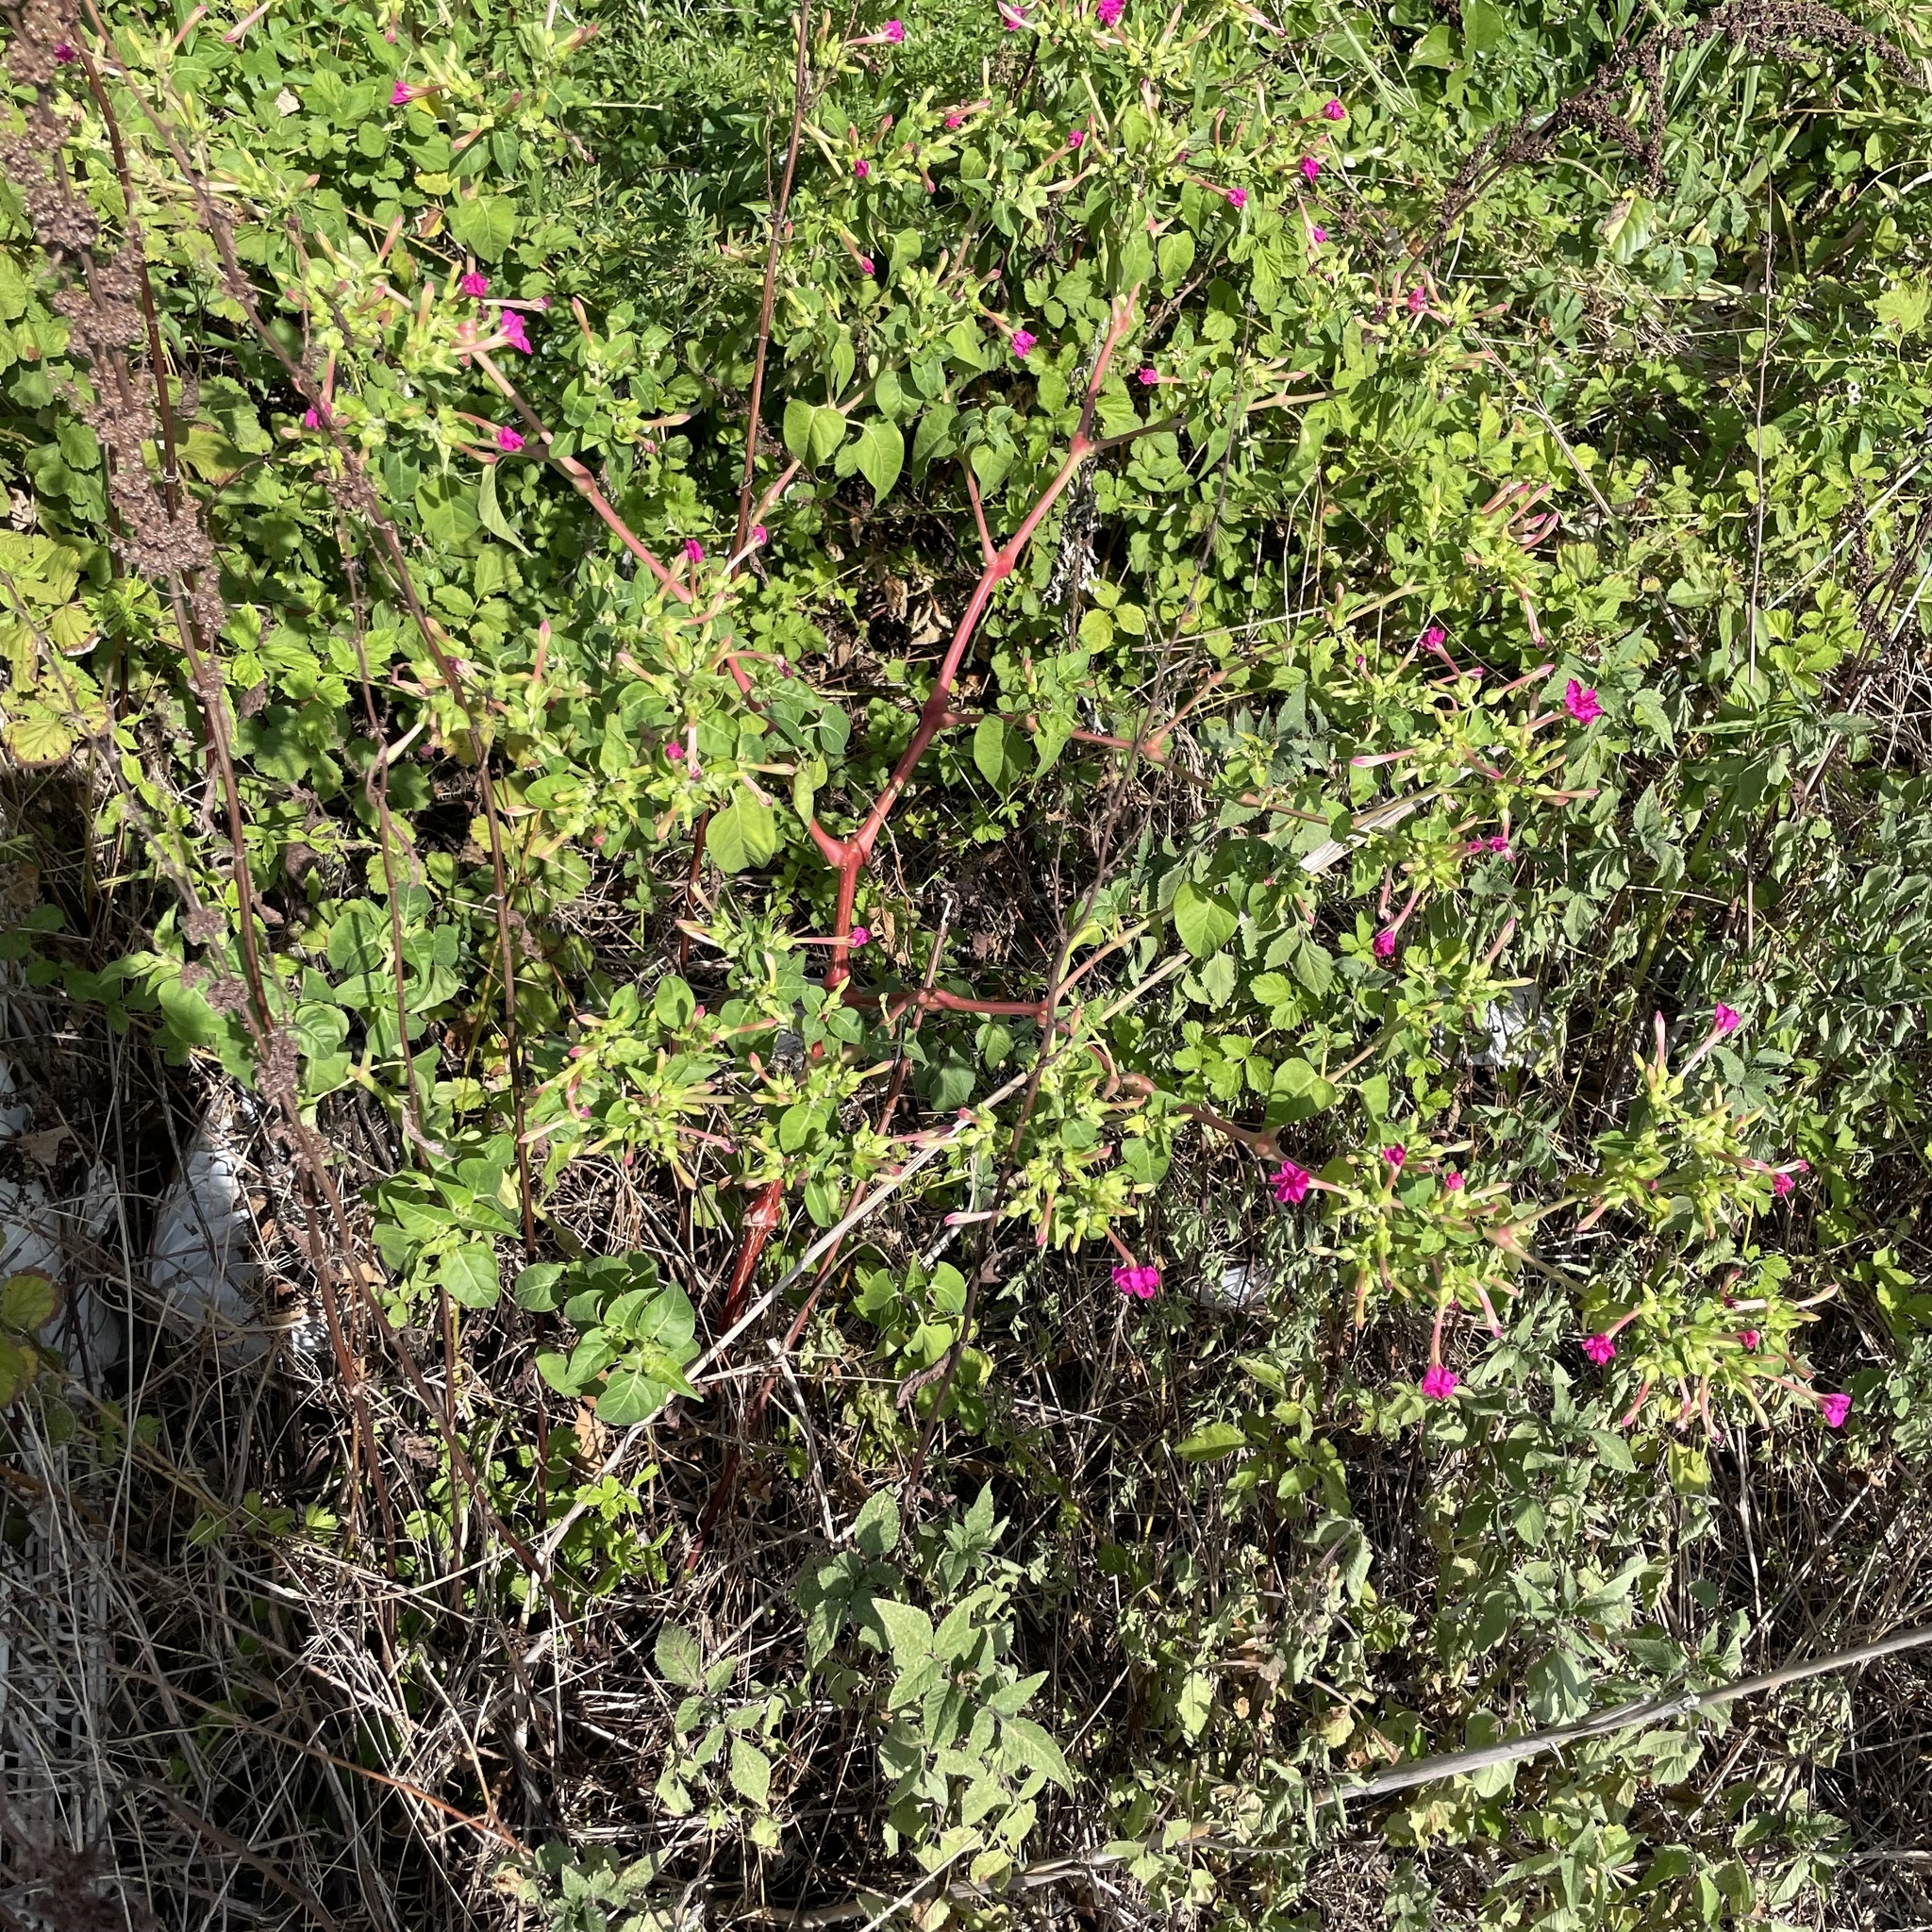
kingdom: Plantae
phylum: Tracheophyta
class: Magnoliopsida
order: Caryophyllales
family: Nyctaginaceae
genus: Mirabilis
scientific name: Mirabilis jalapa
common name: Marvel-of-peru
